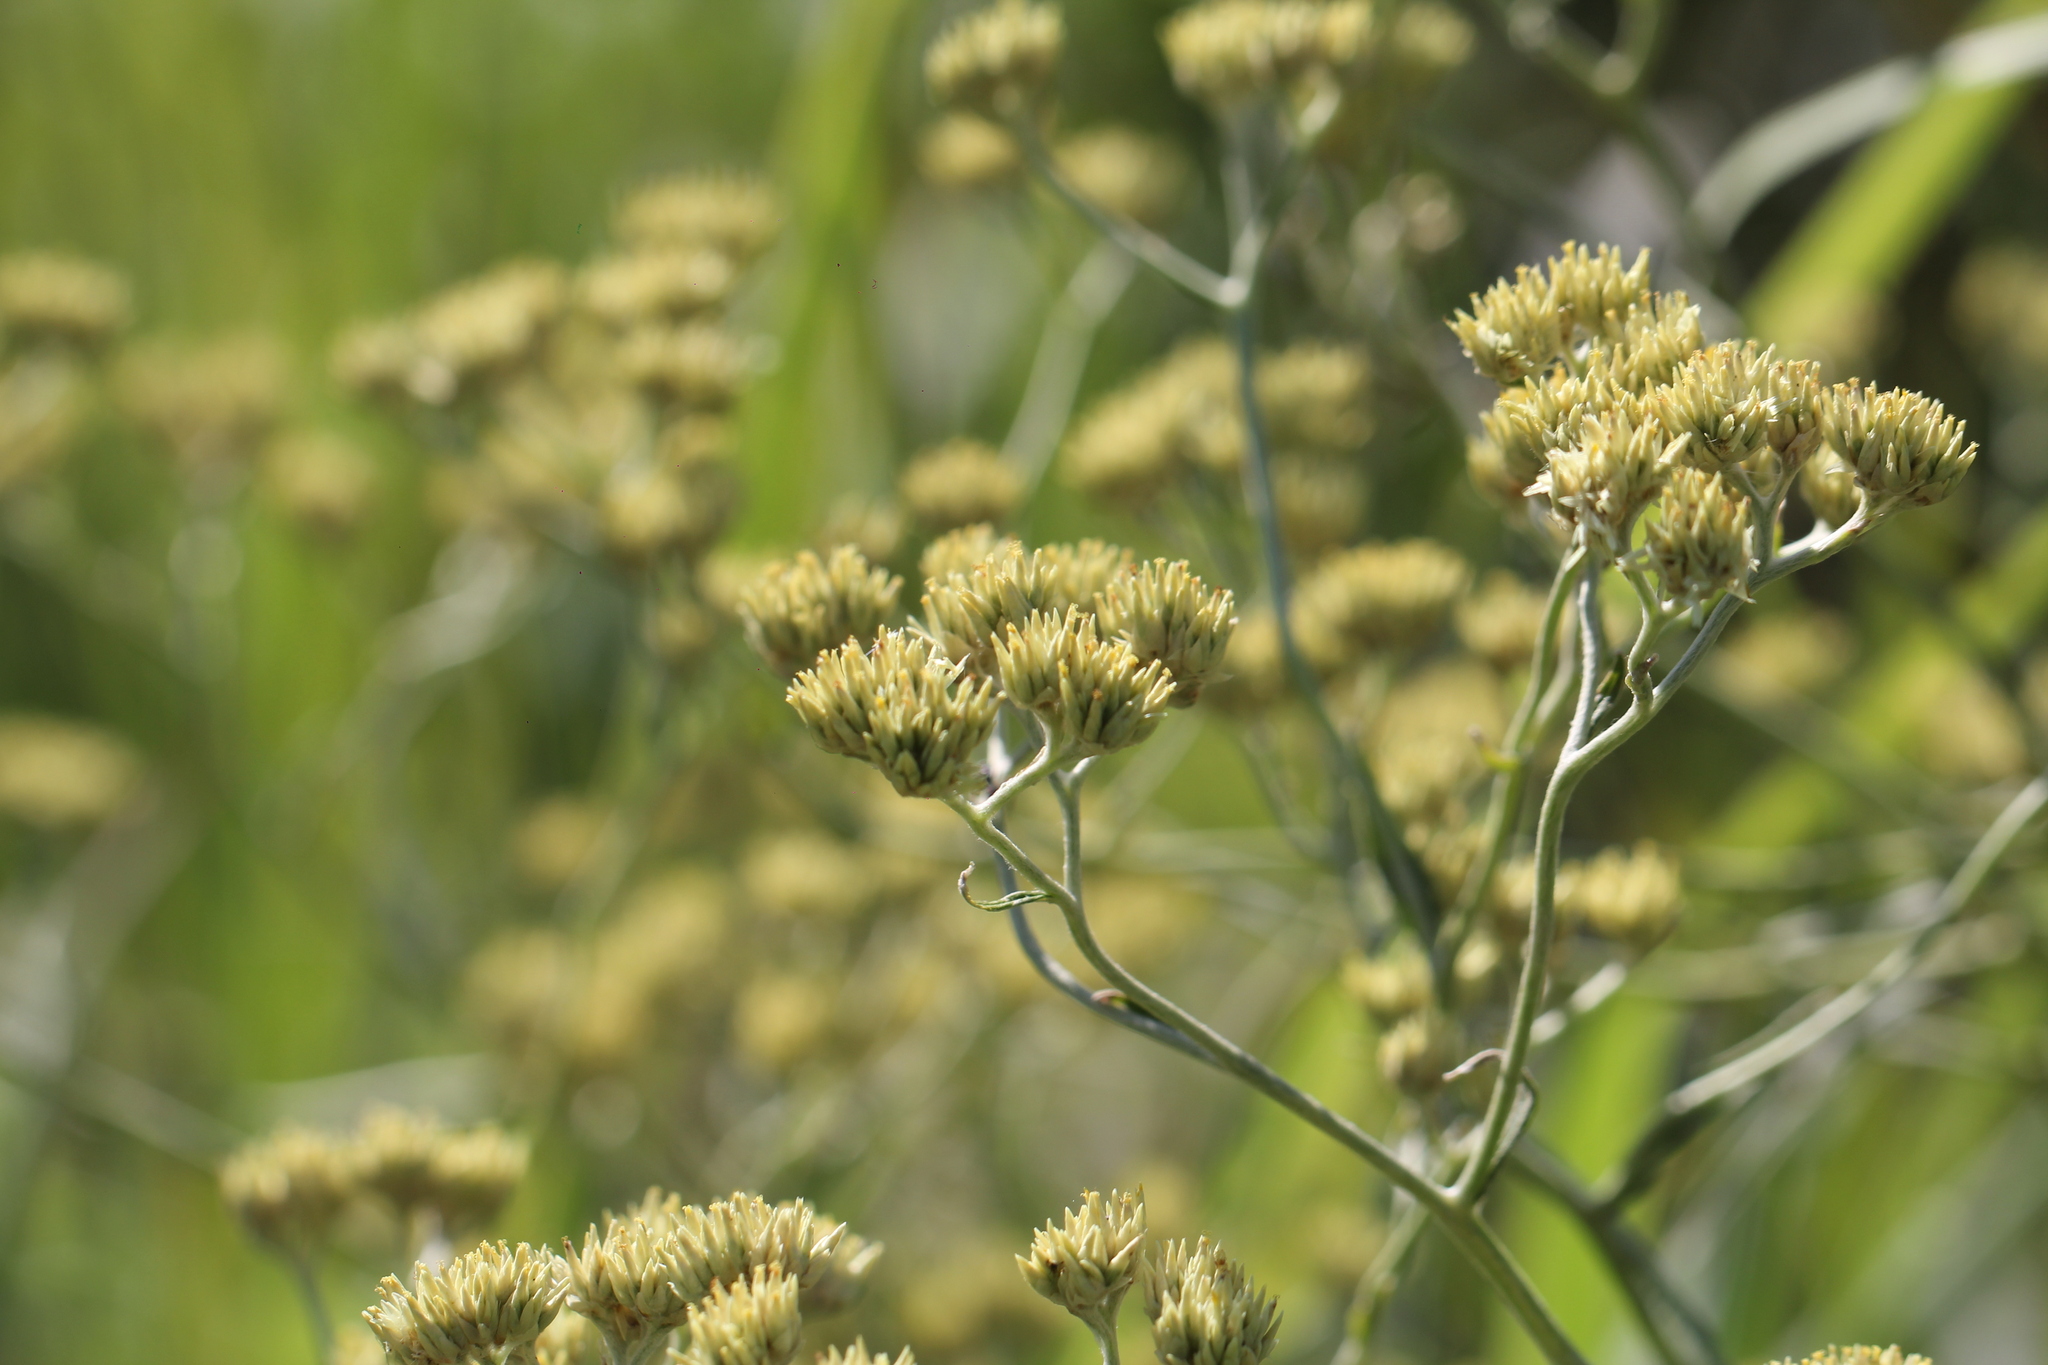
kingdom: Plantae
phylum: Tracheophyta
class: Magnoliopsida
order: Asterales
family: Asteraceae
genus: Achyrocline
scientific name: Achyrocline satureioides
